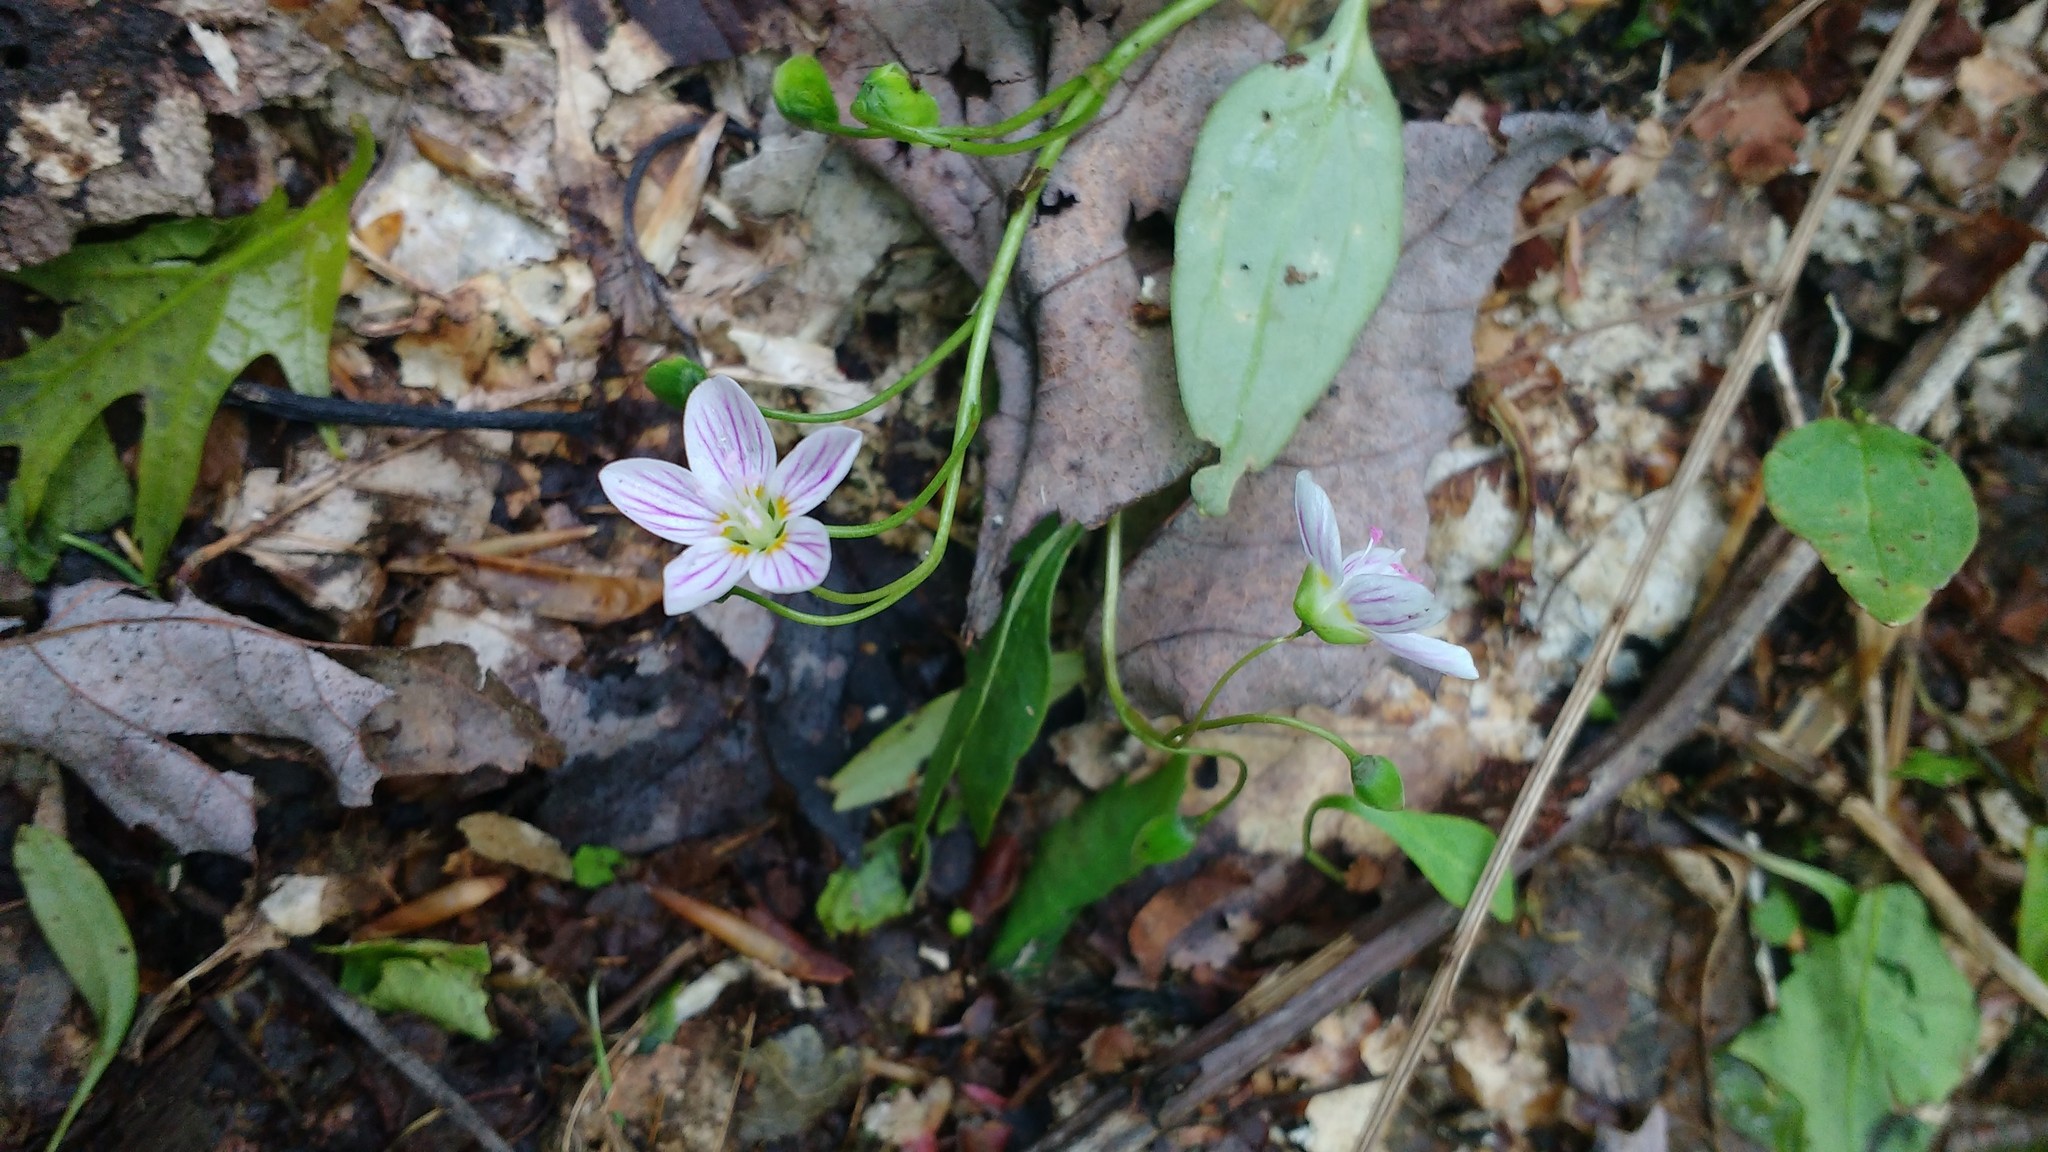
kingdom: Plantae
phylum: Tracheophyta
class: Magnoliopsida
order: Caryophyllales
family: Montiaceae
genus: Claytonia
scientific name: Claytonia caroliniana
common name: Carolina spring beauty
